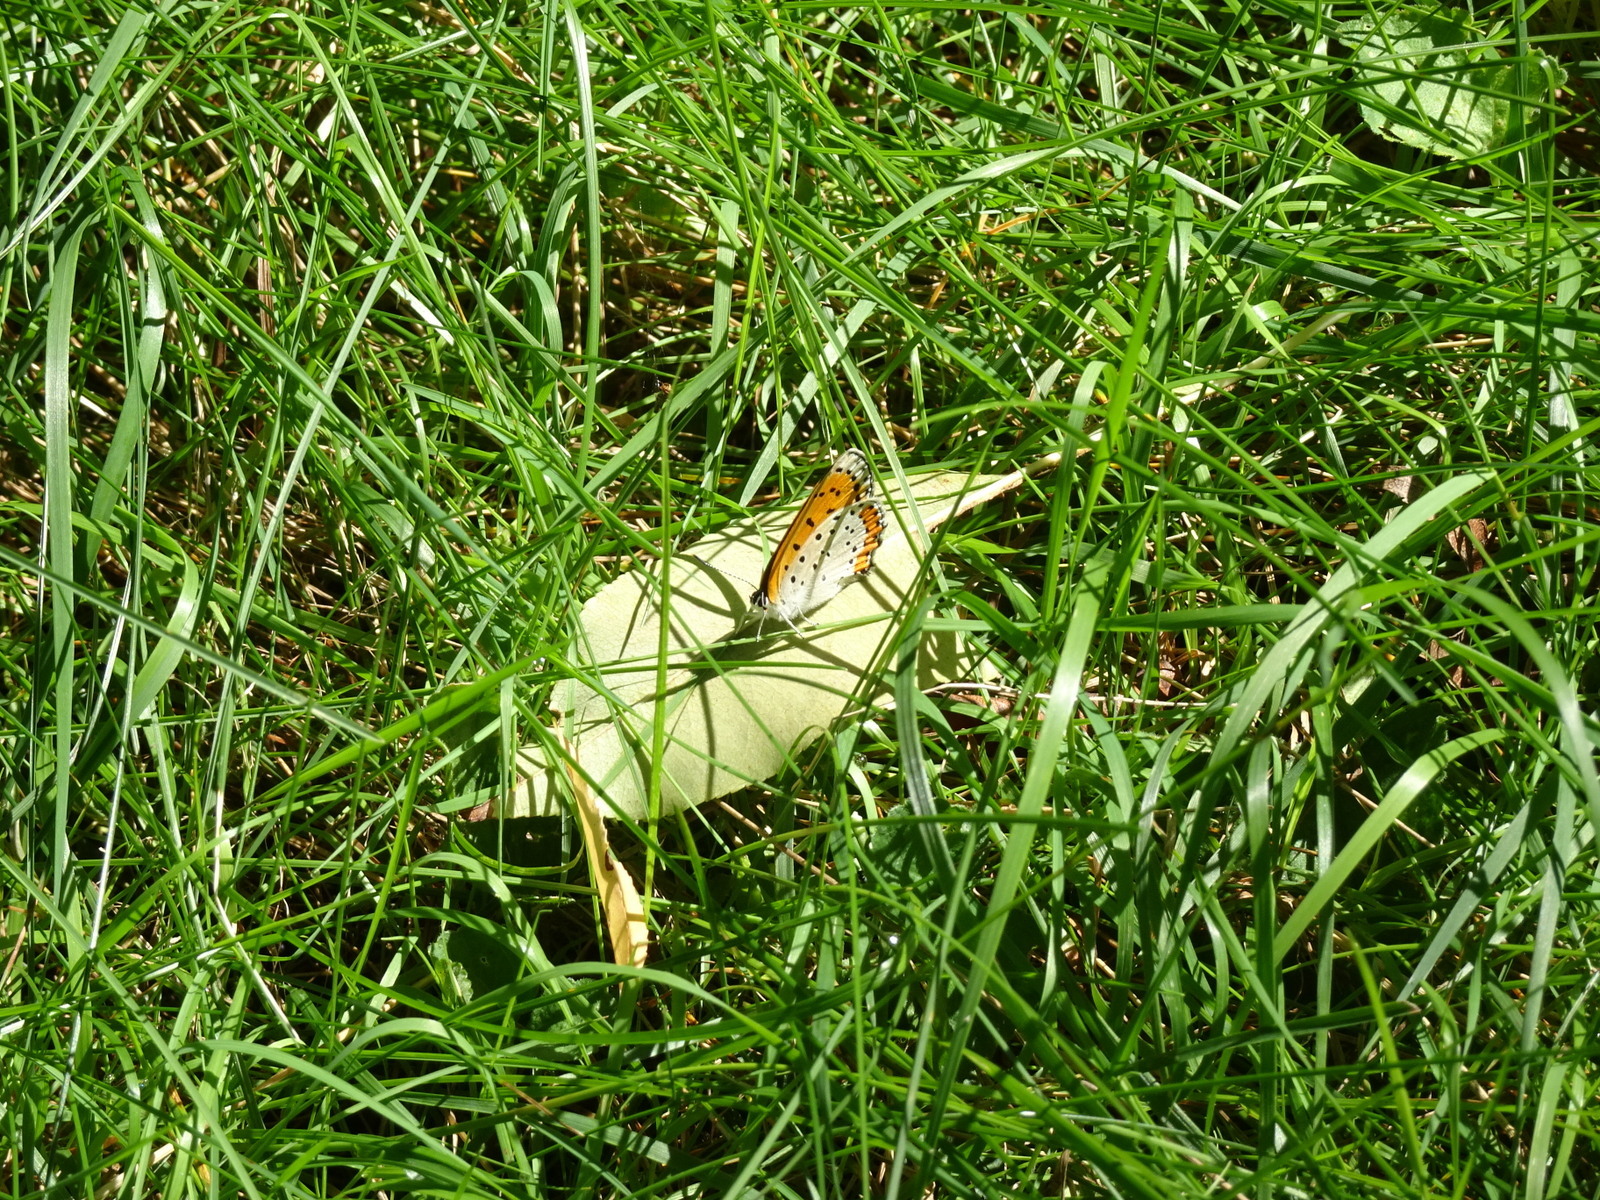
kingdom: Animalia
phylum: Arthropoda
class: Insecta
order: Lepidoptera
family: Lycaenidae
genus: Tharsalea
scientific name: Tharsalea hyllus
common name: Bronze copper
